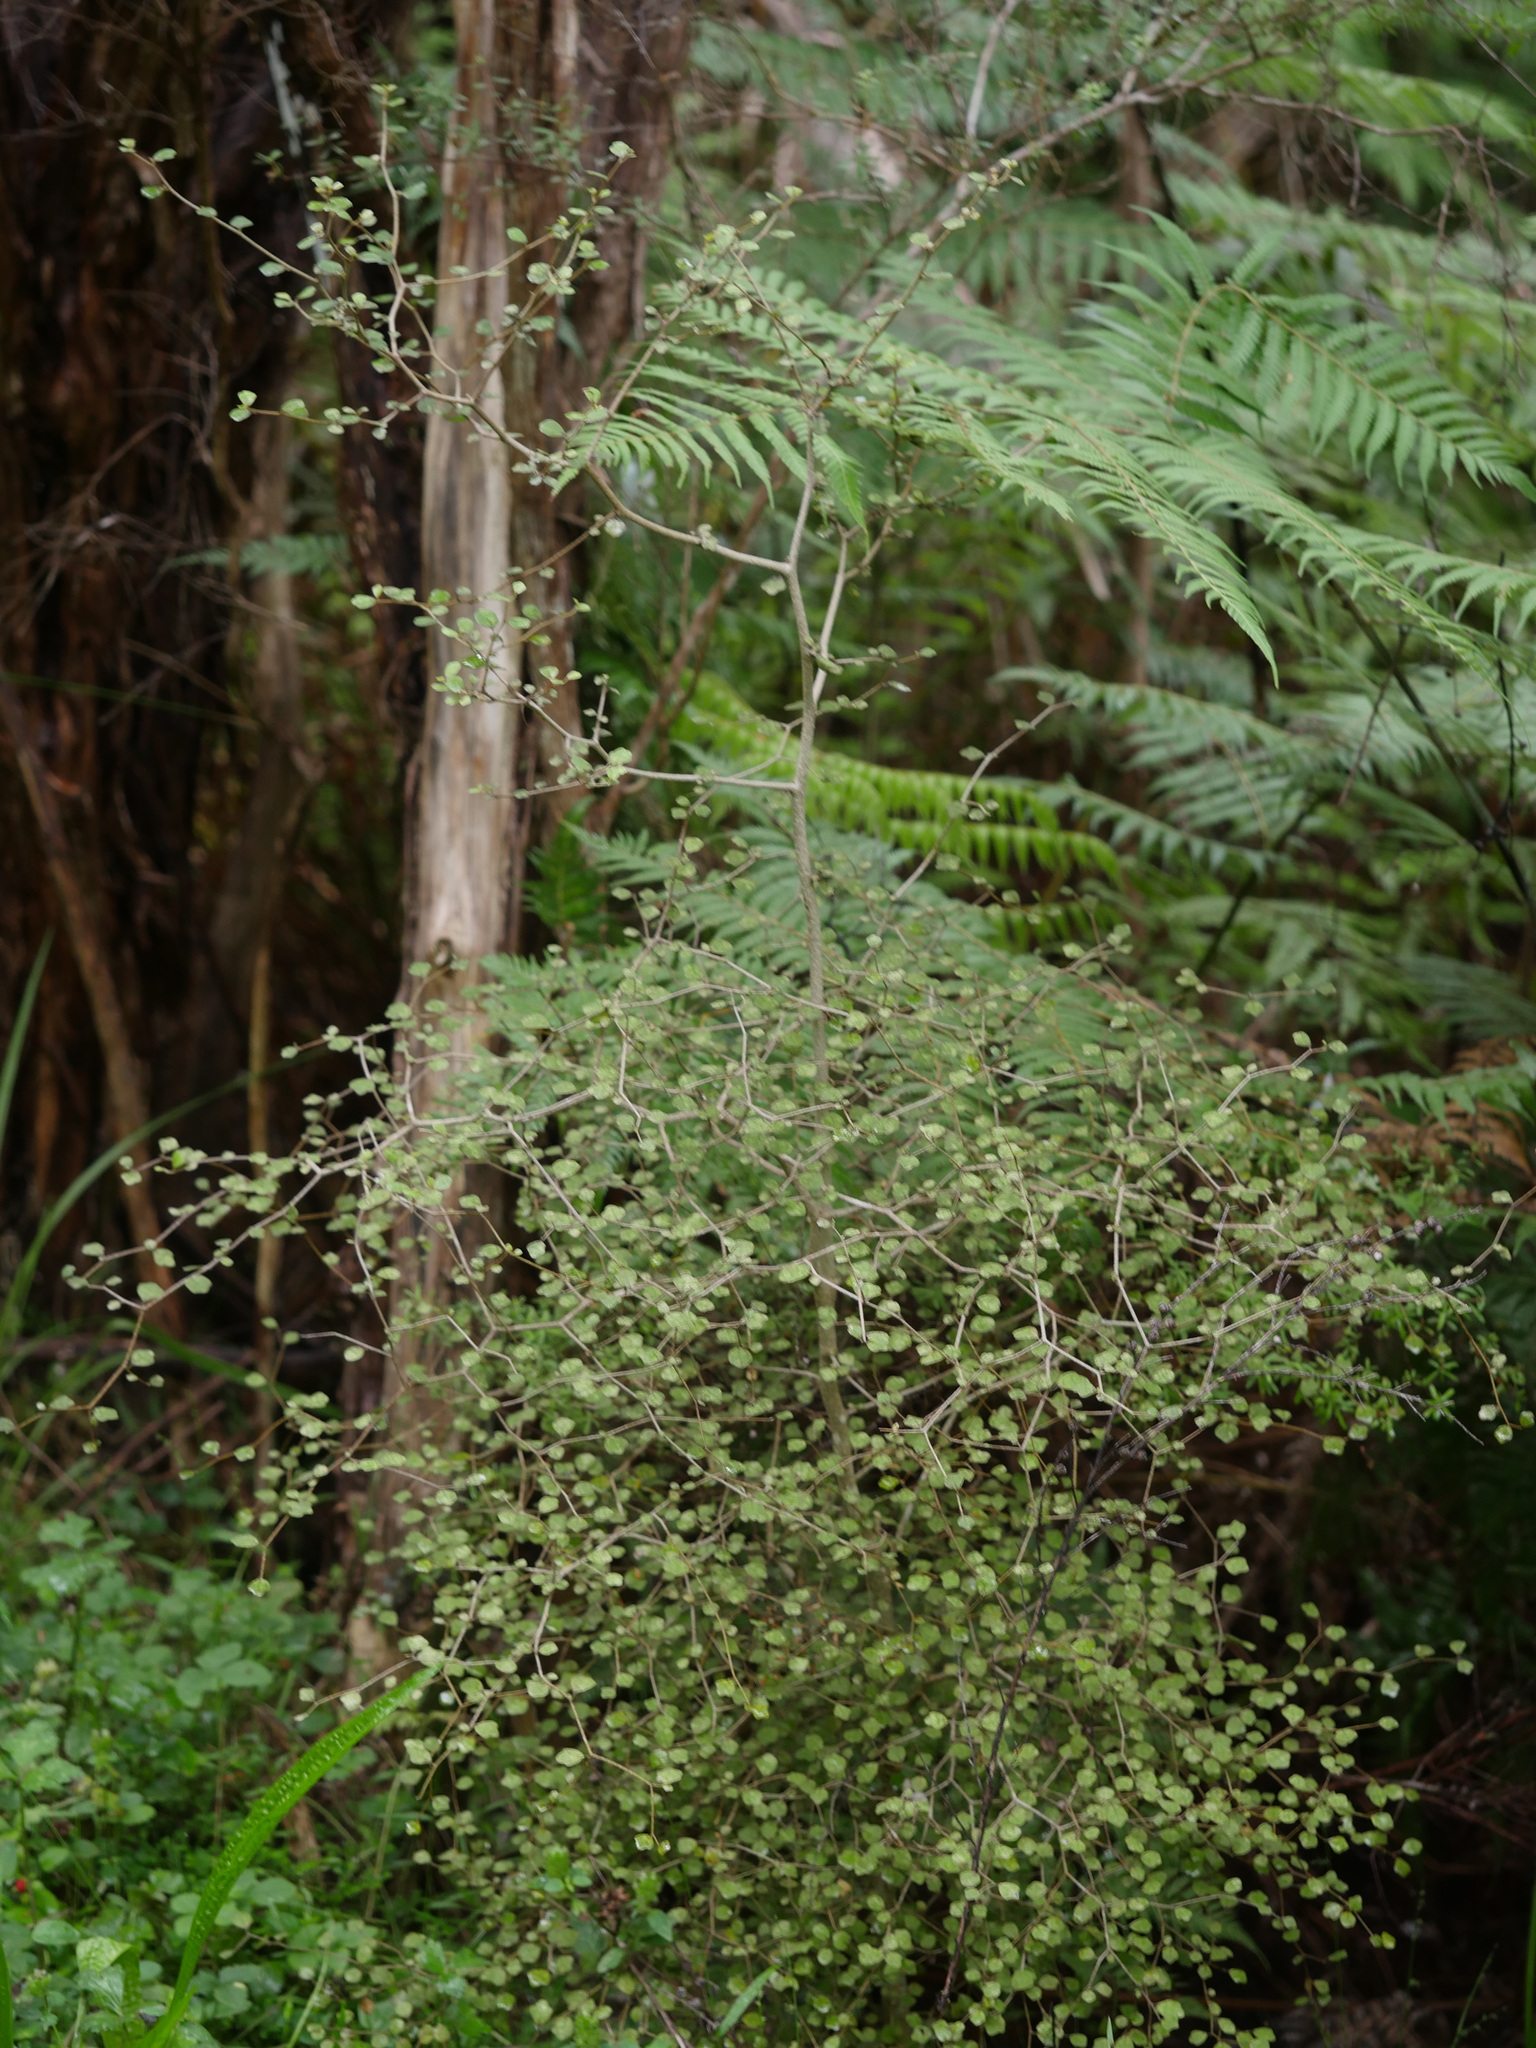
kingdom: Plantae
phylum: Tracheophyta
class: Magnoliopsida
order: Apiales
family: Pennantiaceae
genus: Pennantia
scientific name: Pennantia corymbosa
